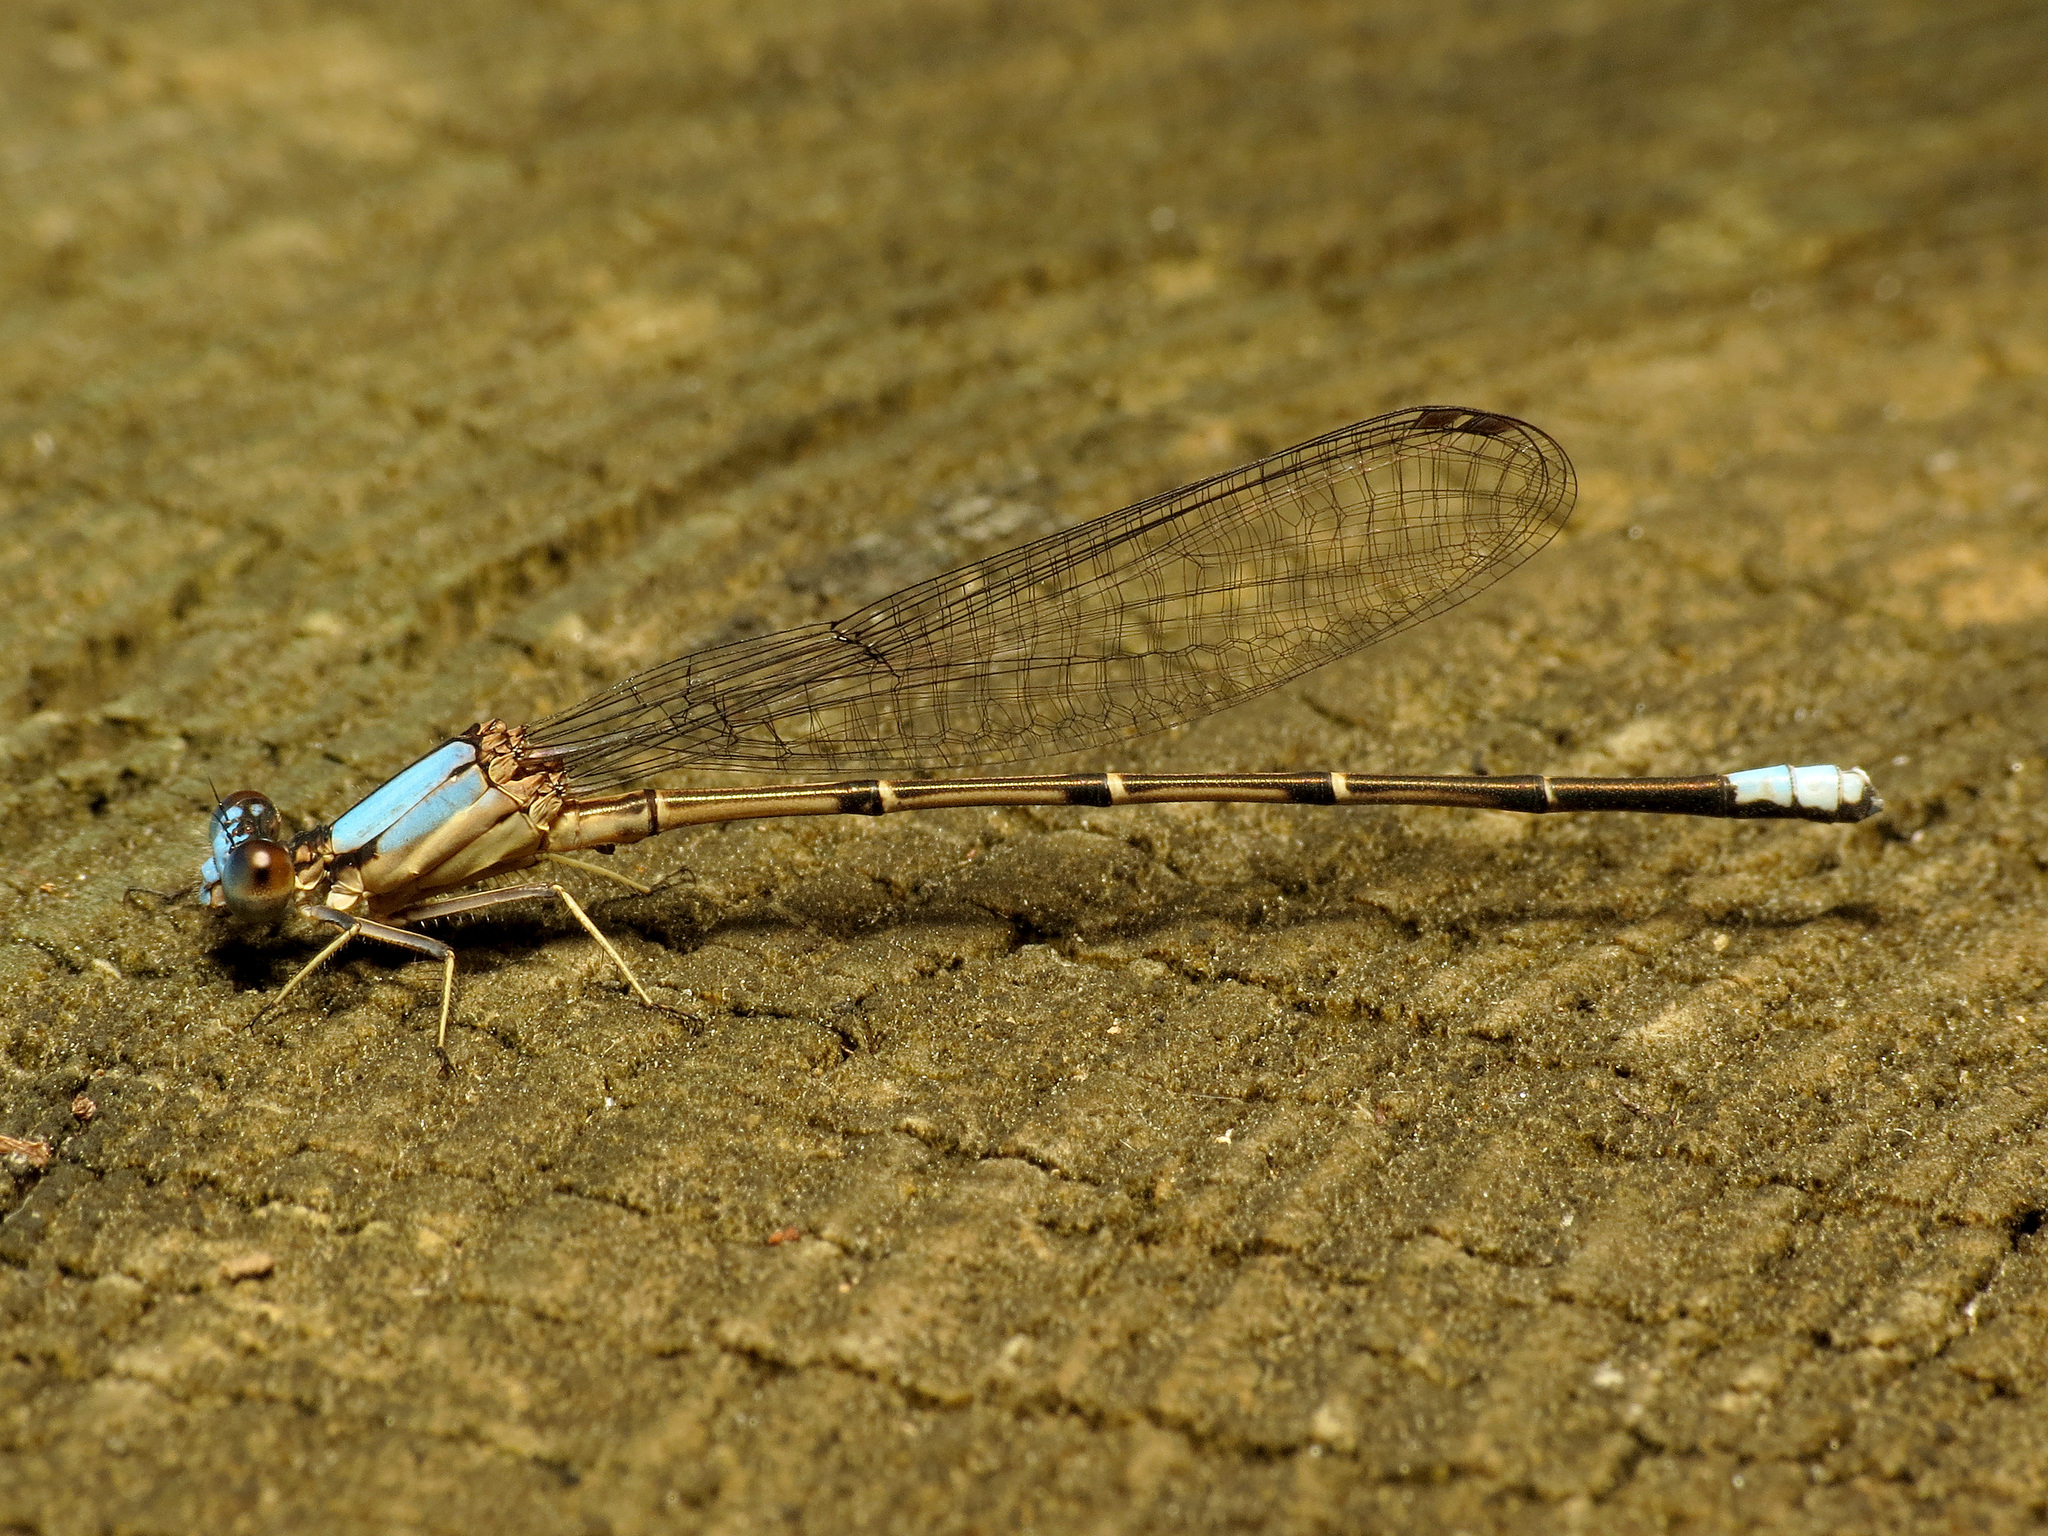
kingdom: Animalia
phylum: Arthropoda
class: Insecta
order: Odonata
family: Coenagrionidae
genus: Argia
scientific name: Argia apicalis
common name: Blue-fronted dancer
